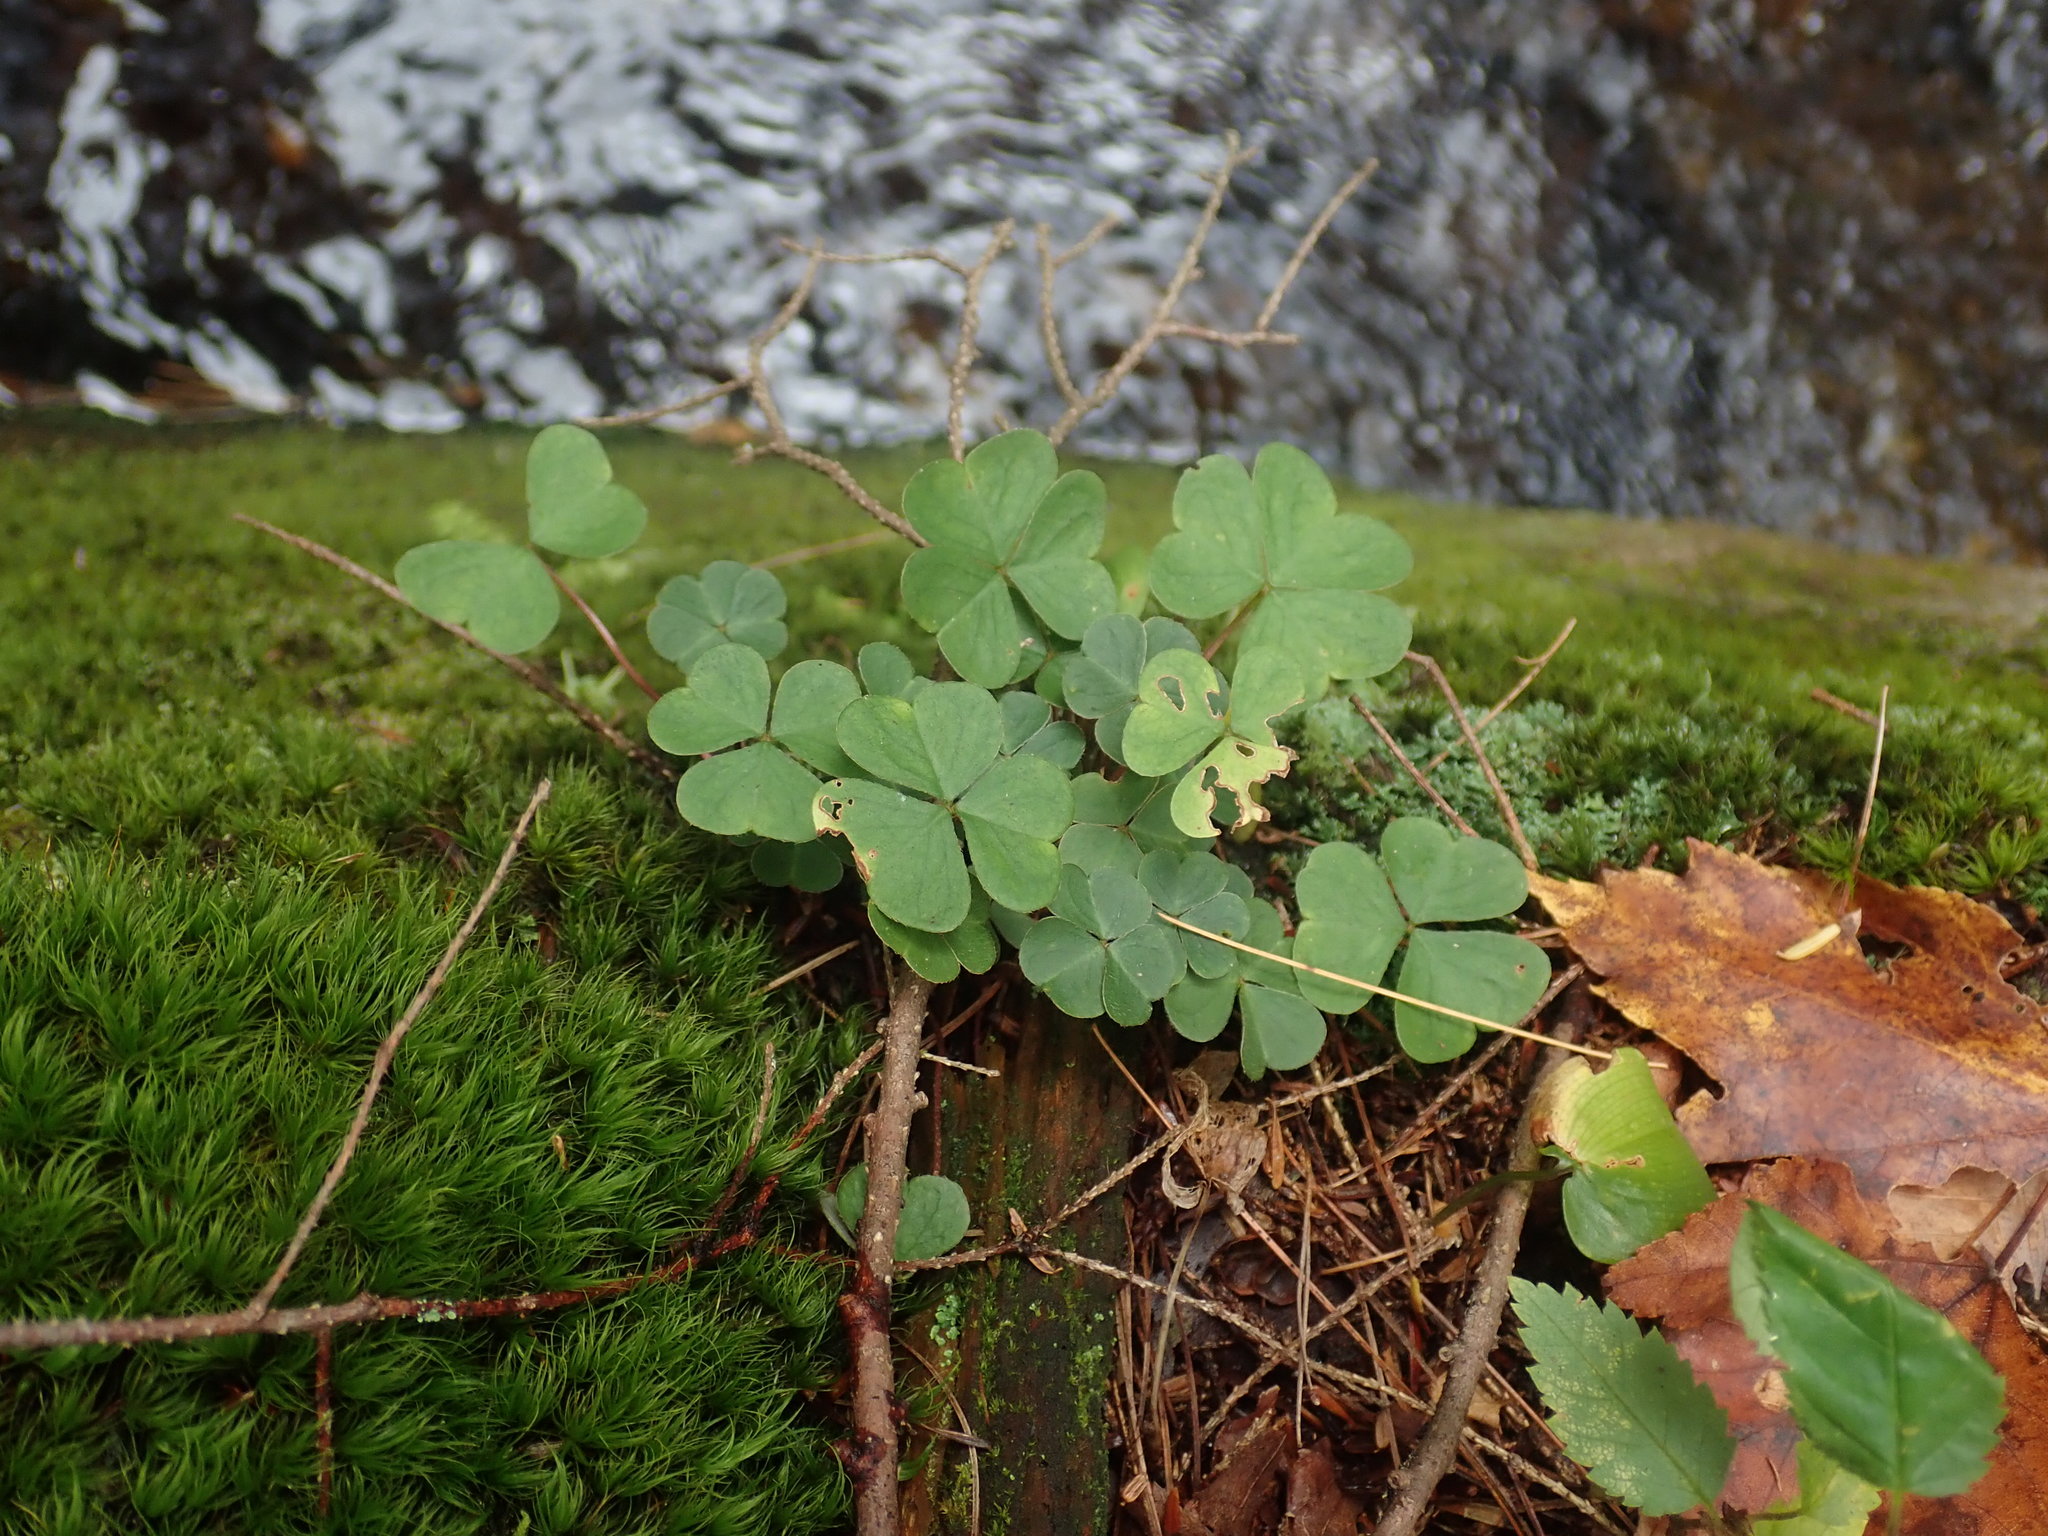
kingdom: Plantae
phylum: Tracheophyta
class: Magnoliopsida
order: Oxalidales
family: Oxalidaceae
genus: Oxalis
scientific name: Oxalis montana
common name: American wood-sorrel
